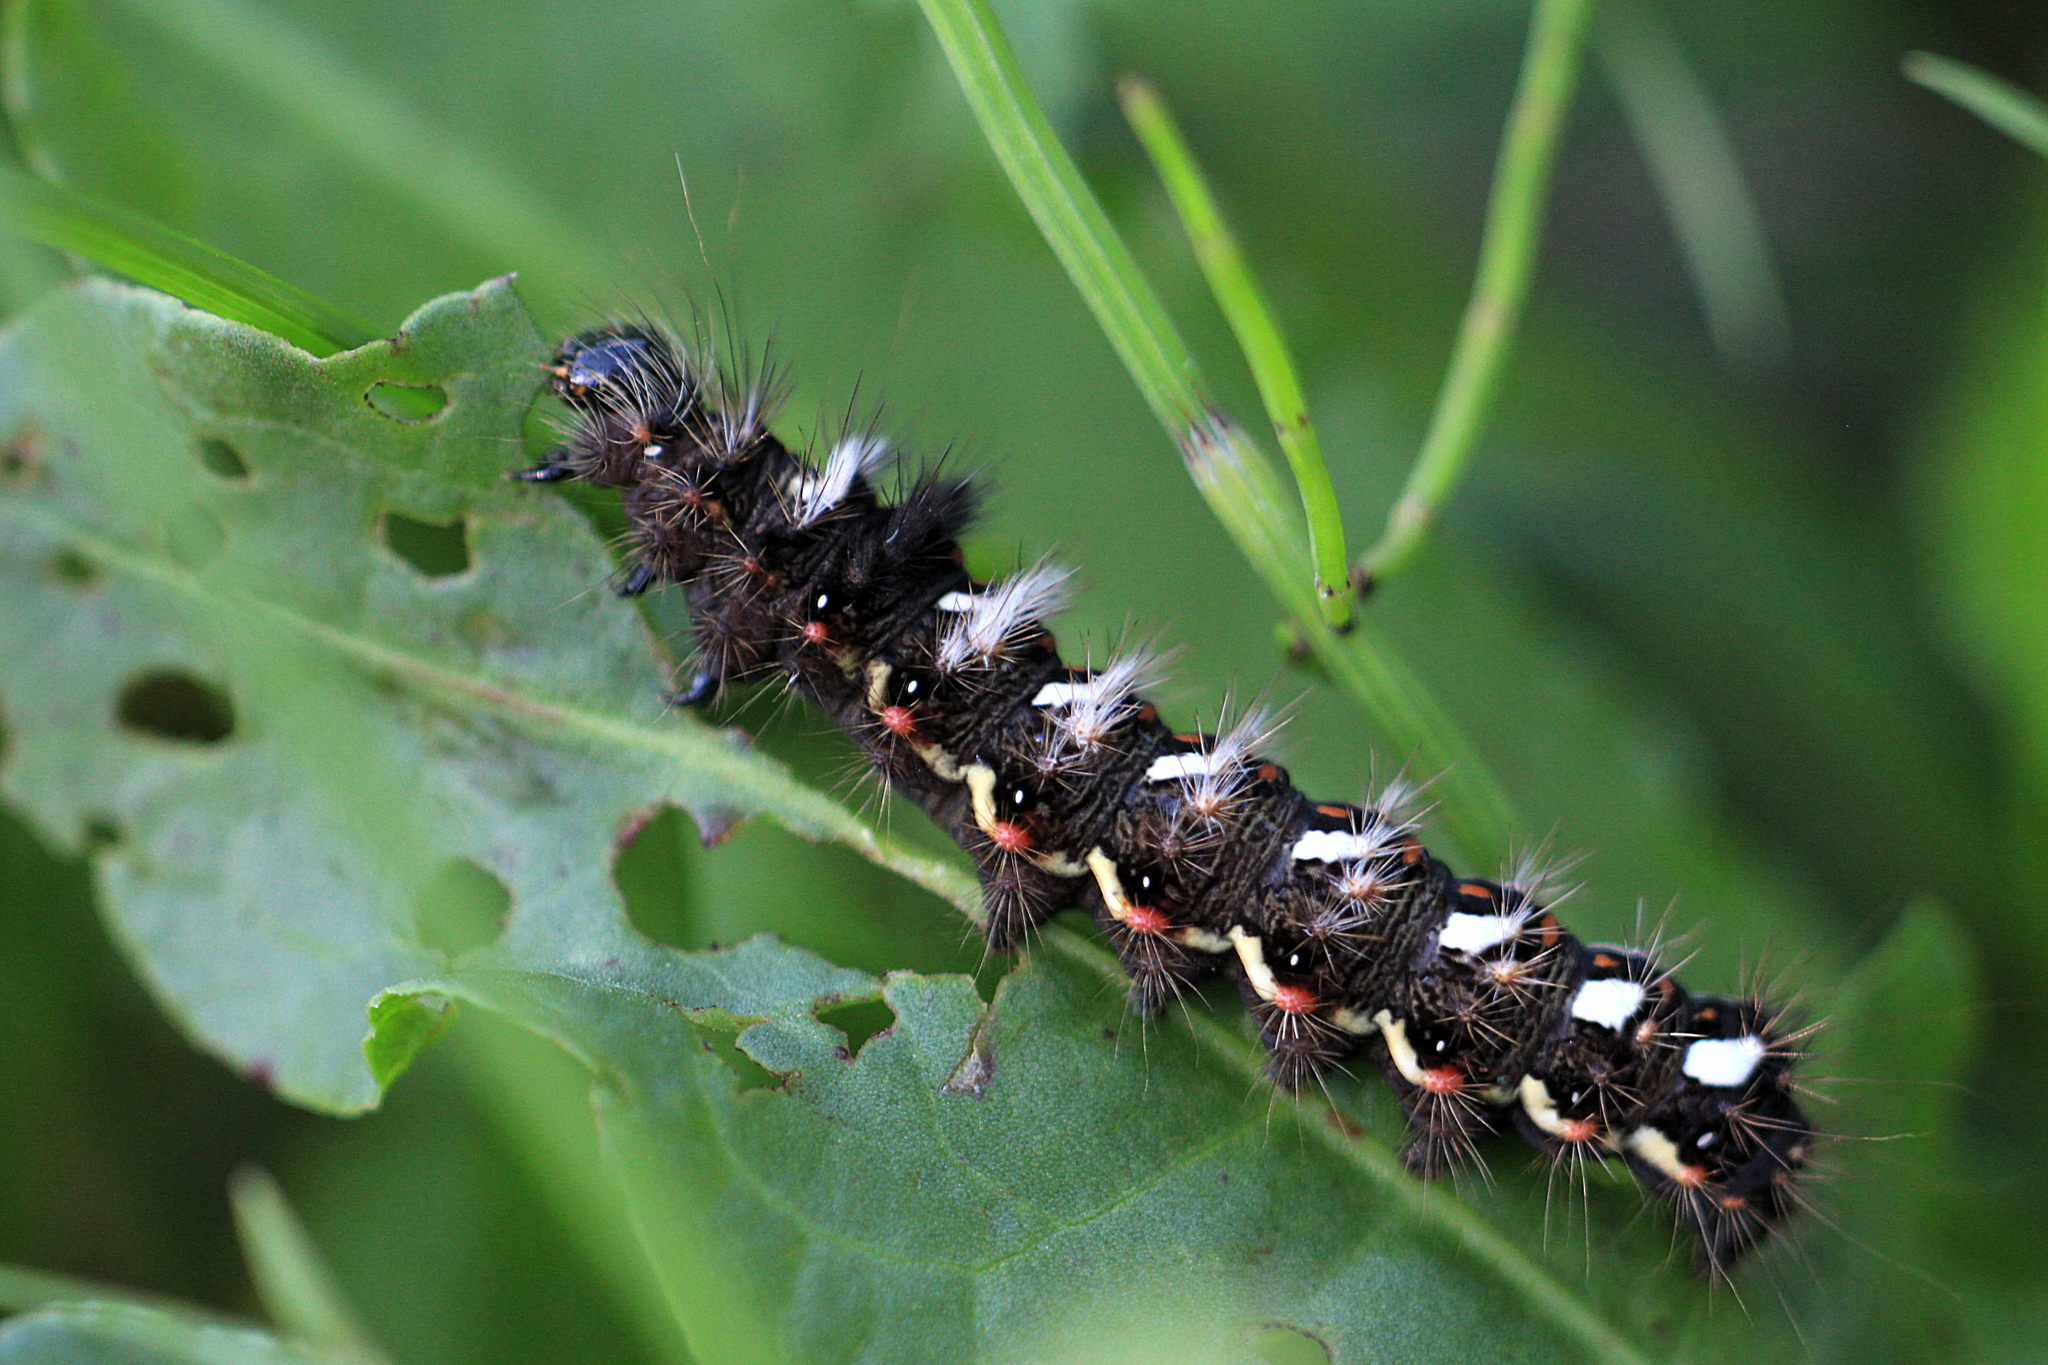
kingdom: Animalia
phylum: Arthropoda
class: Insecta
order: Lepidoptera
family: Noctuidae
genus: Acronicta
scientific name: Acronicta rumicis
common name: Knot grass
